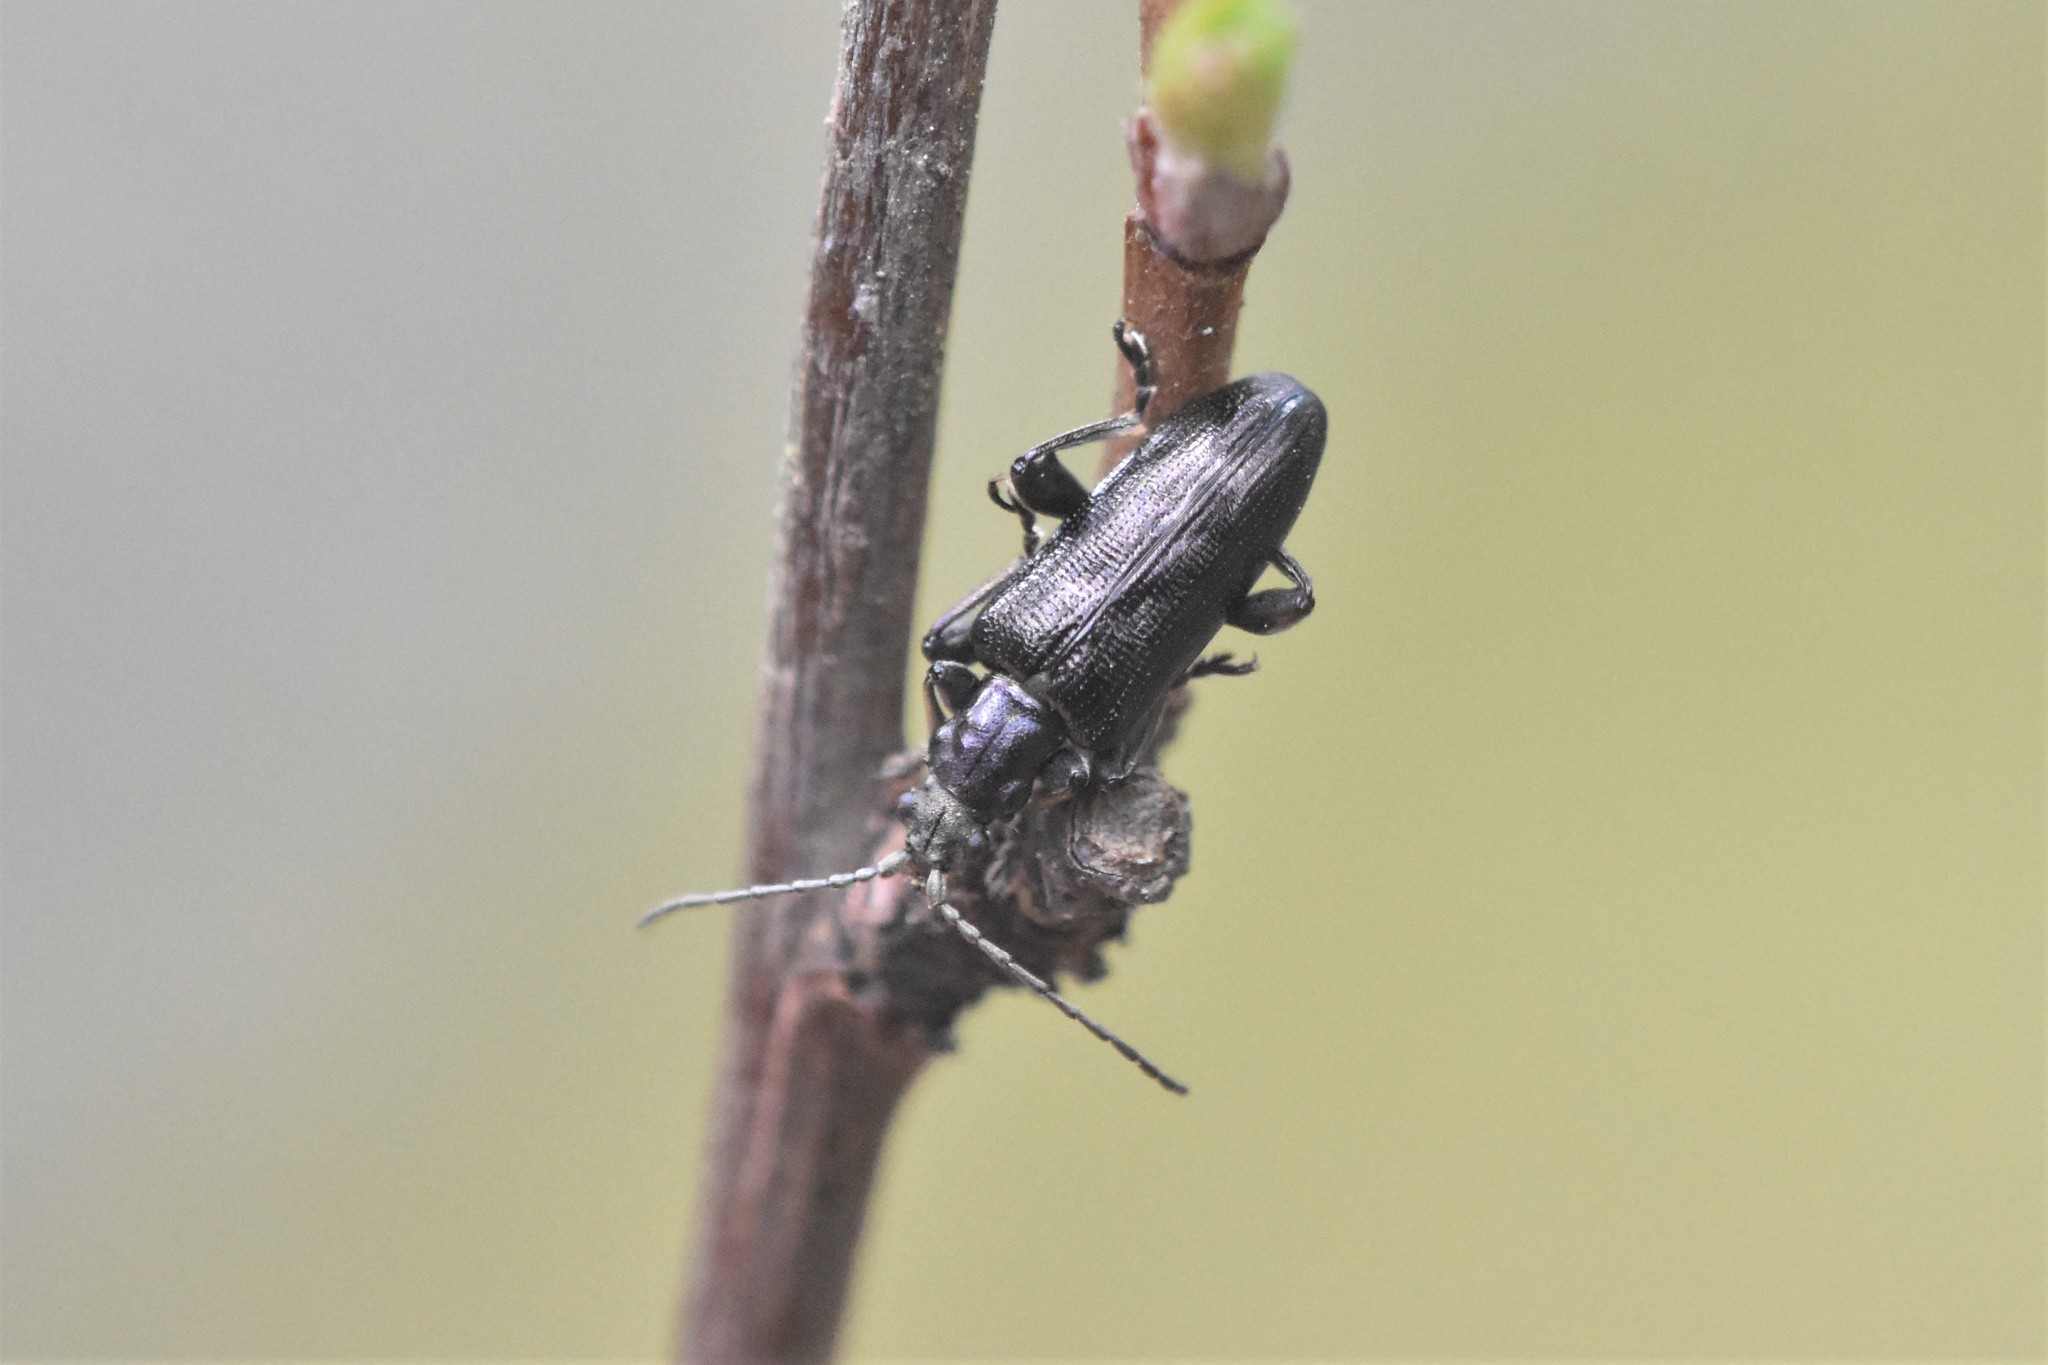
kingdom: Animalia
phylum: Arthropoda
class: Insecta
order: Coleoptera
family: Chrysomelidae
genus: Plateumaris
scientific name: Plateumaris nitida
